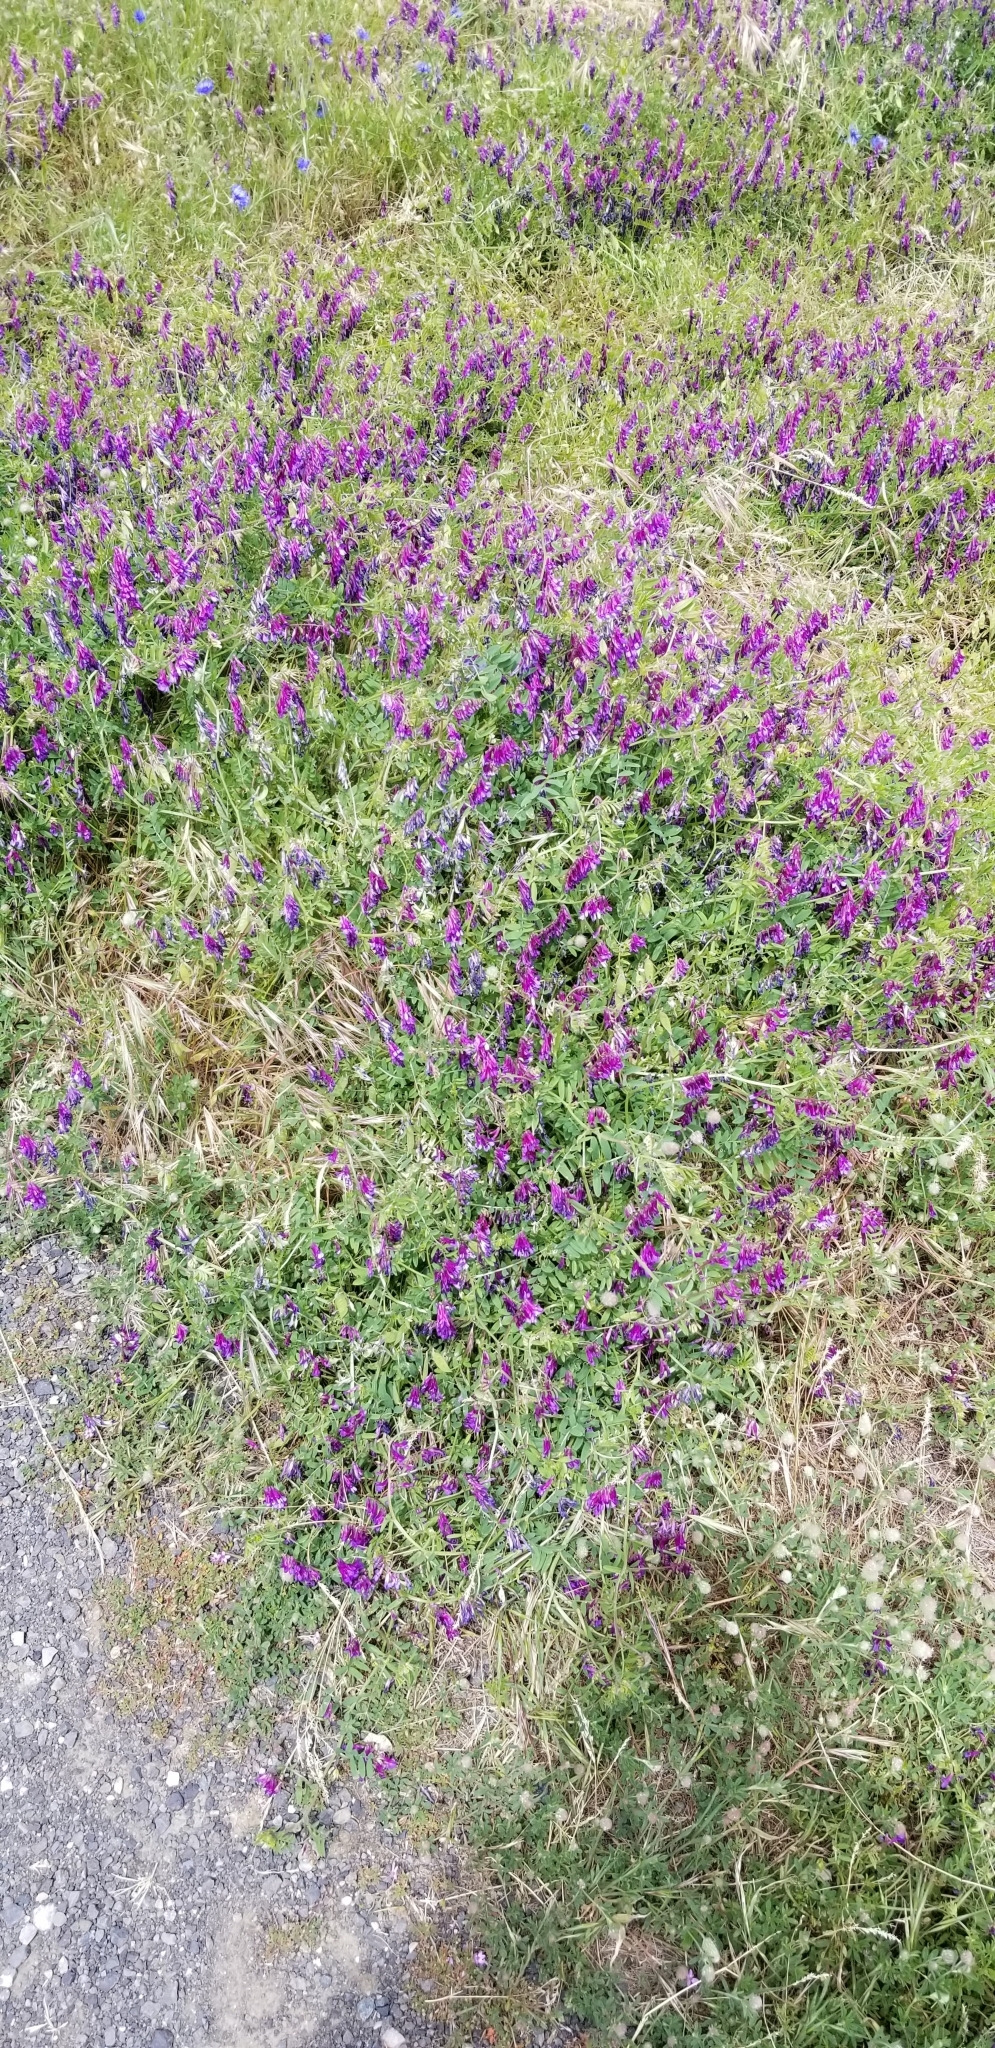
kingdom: Plantae
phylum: Tracheophyta
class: Magnoliopsida
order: Fabales
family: Fabaceae
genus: Vicia
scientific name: Vicia villosa
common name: Fodder vetch
